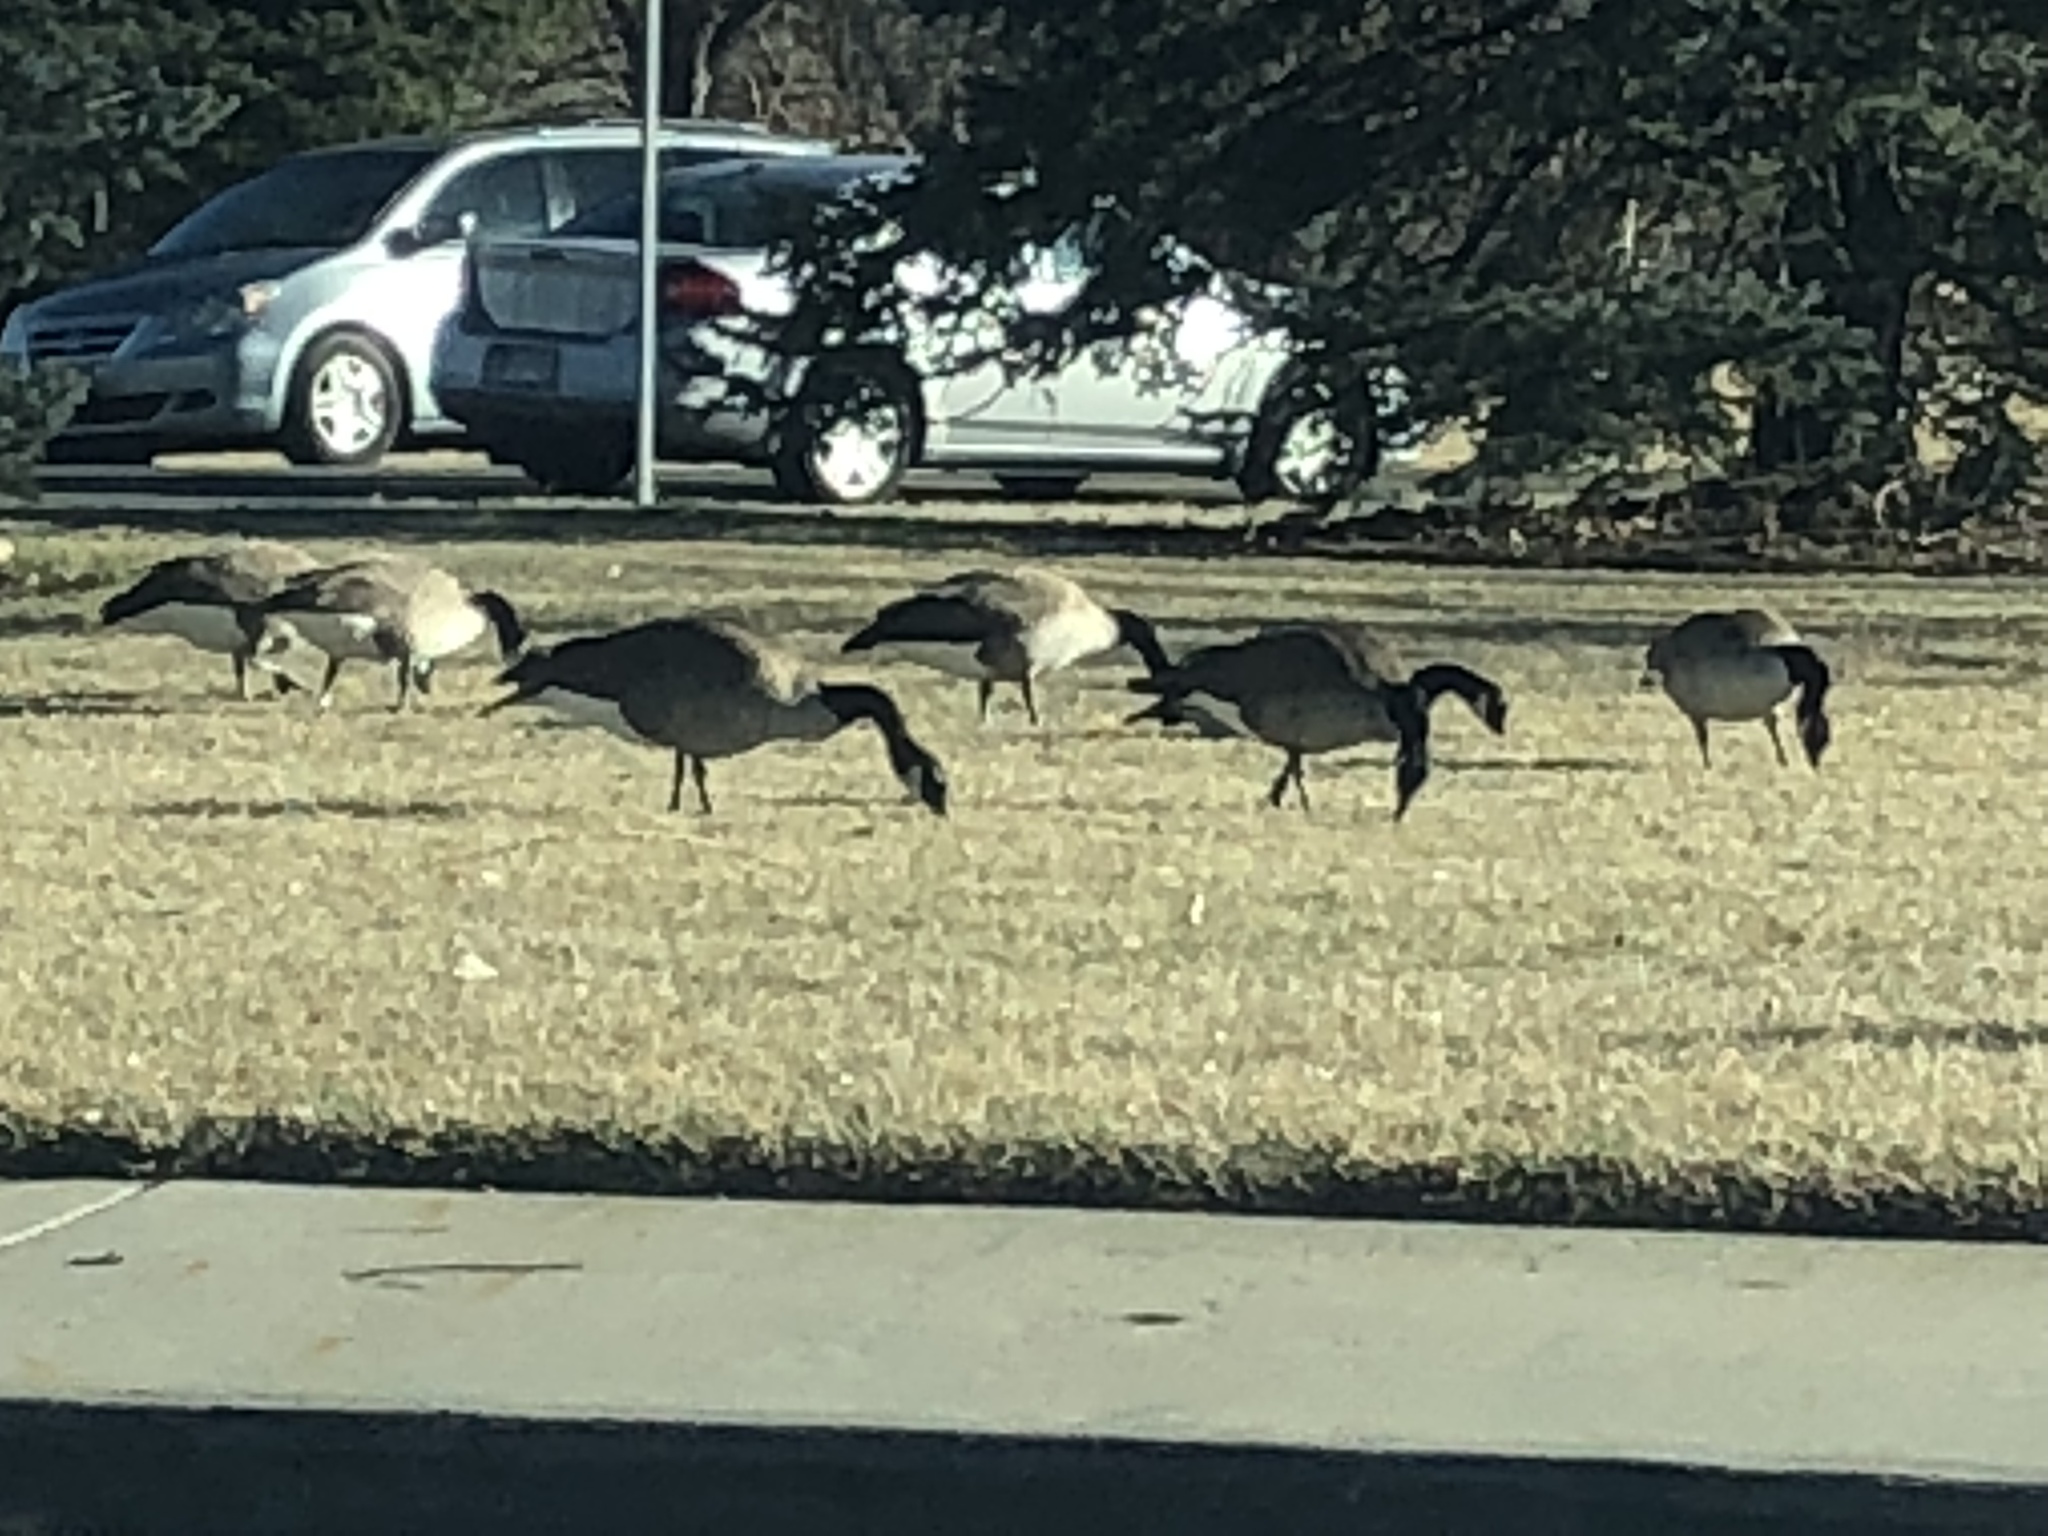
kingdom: Animalia
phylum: Chordata
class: Aves
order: Anseriformes
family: Anatidae
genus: Branta
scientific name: Branta canadensis
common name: Canada goose
